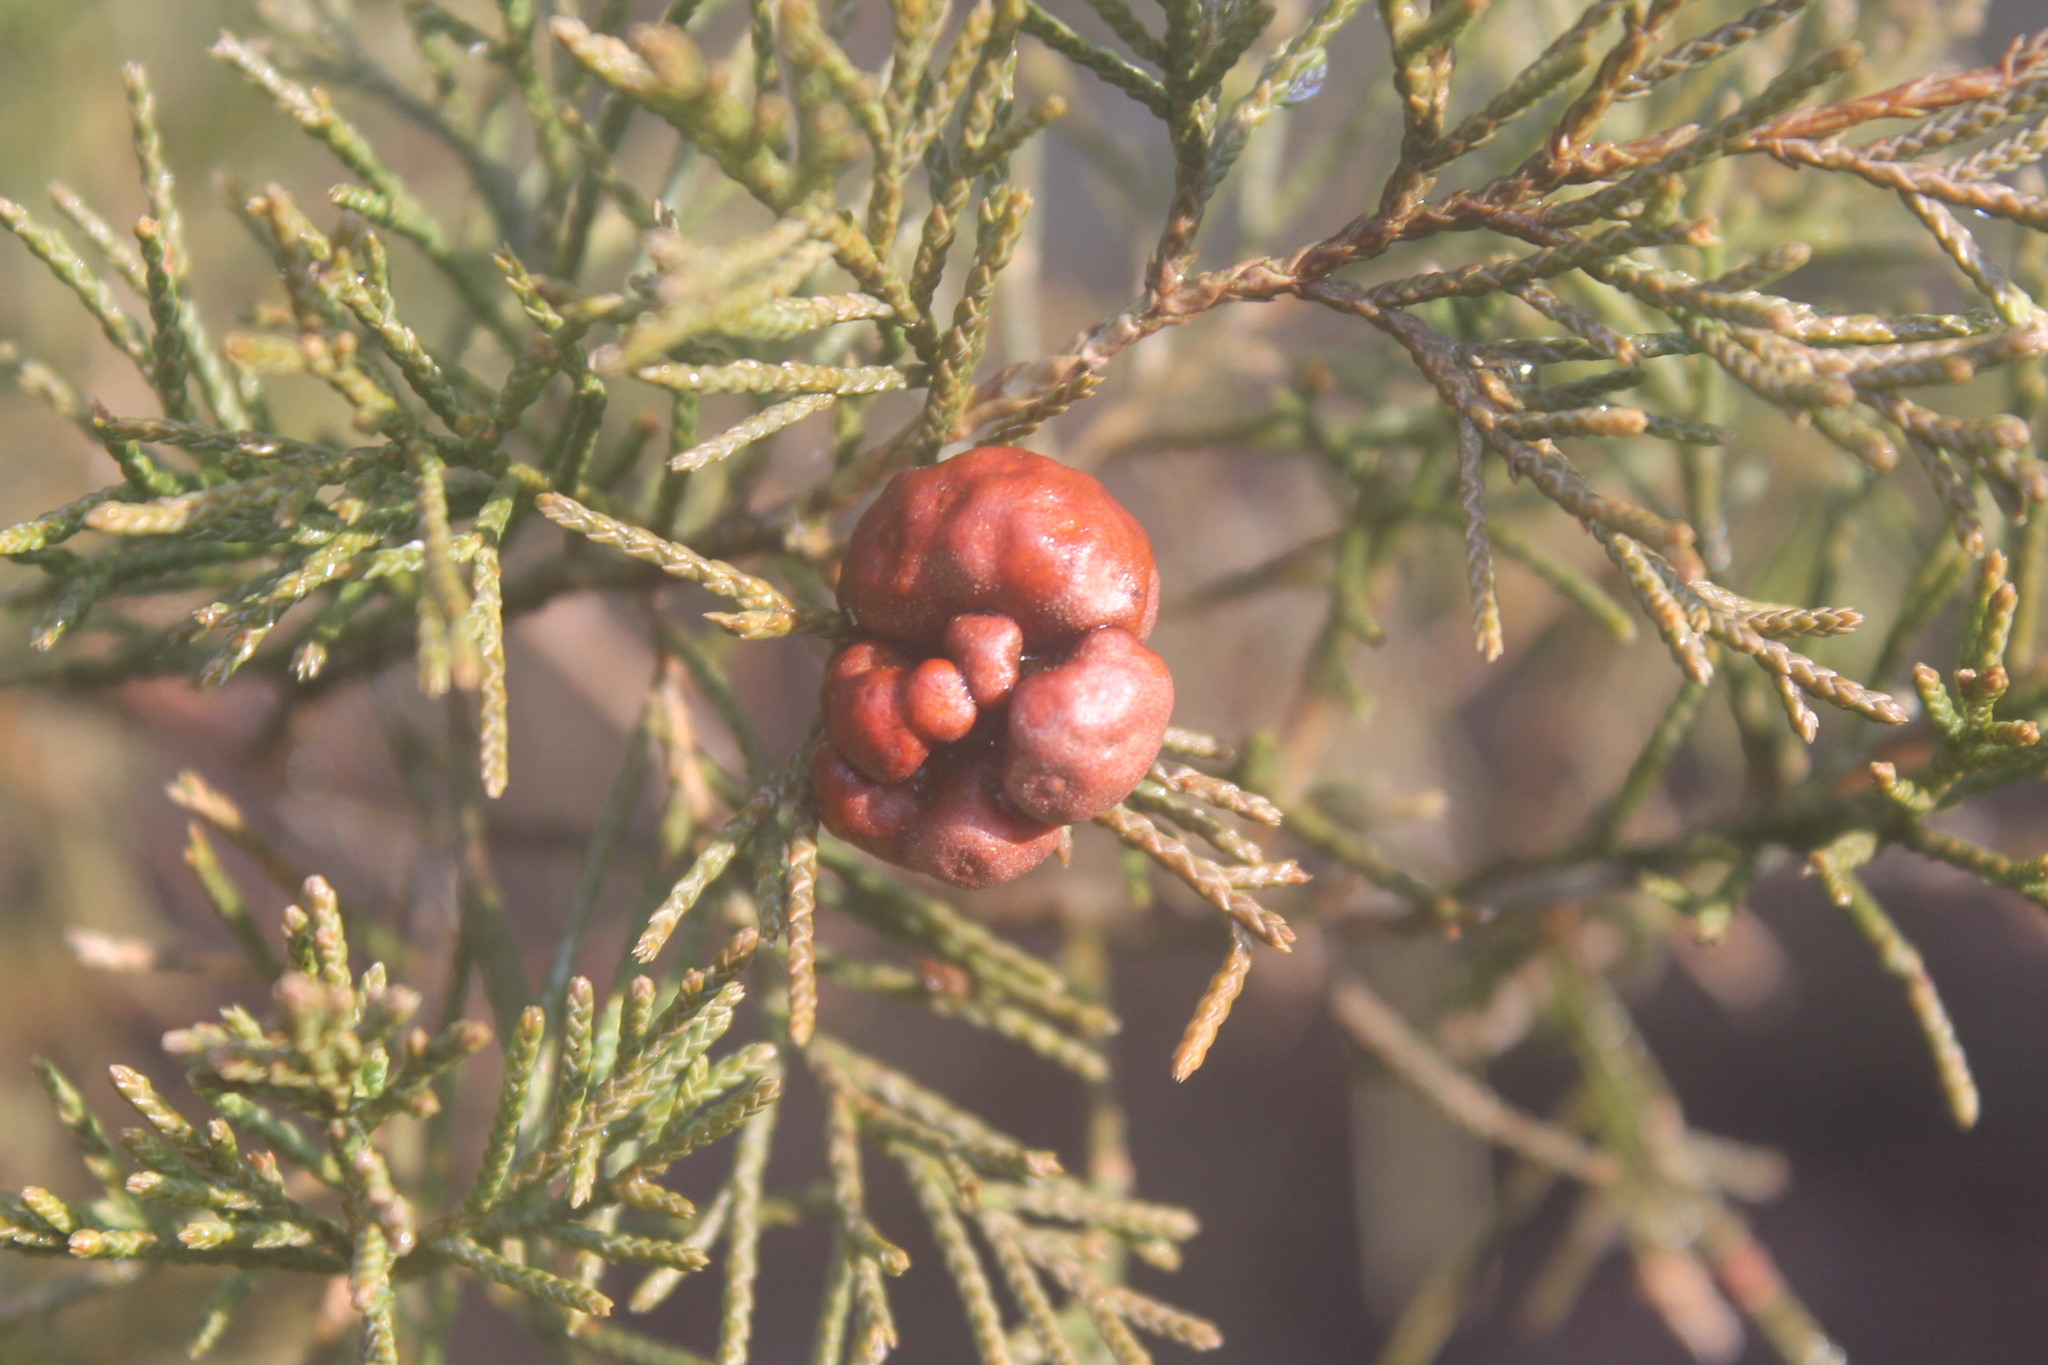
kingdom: Fungi
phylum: Basidiomycota
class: Pucciniomycetes
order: Pucciniales
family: Gymnosporangiaceae
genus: Gymnosporangium
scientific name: Gymnosporangium juniperi-virginianae
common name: Juniper-apple rust
